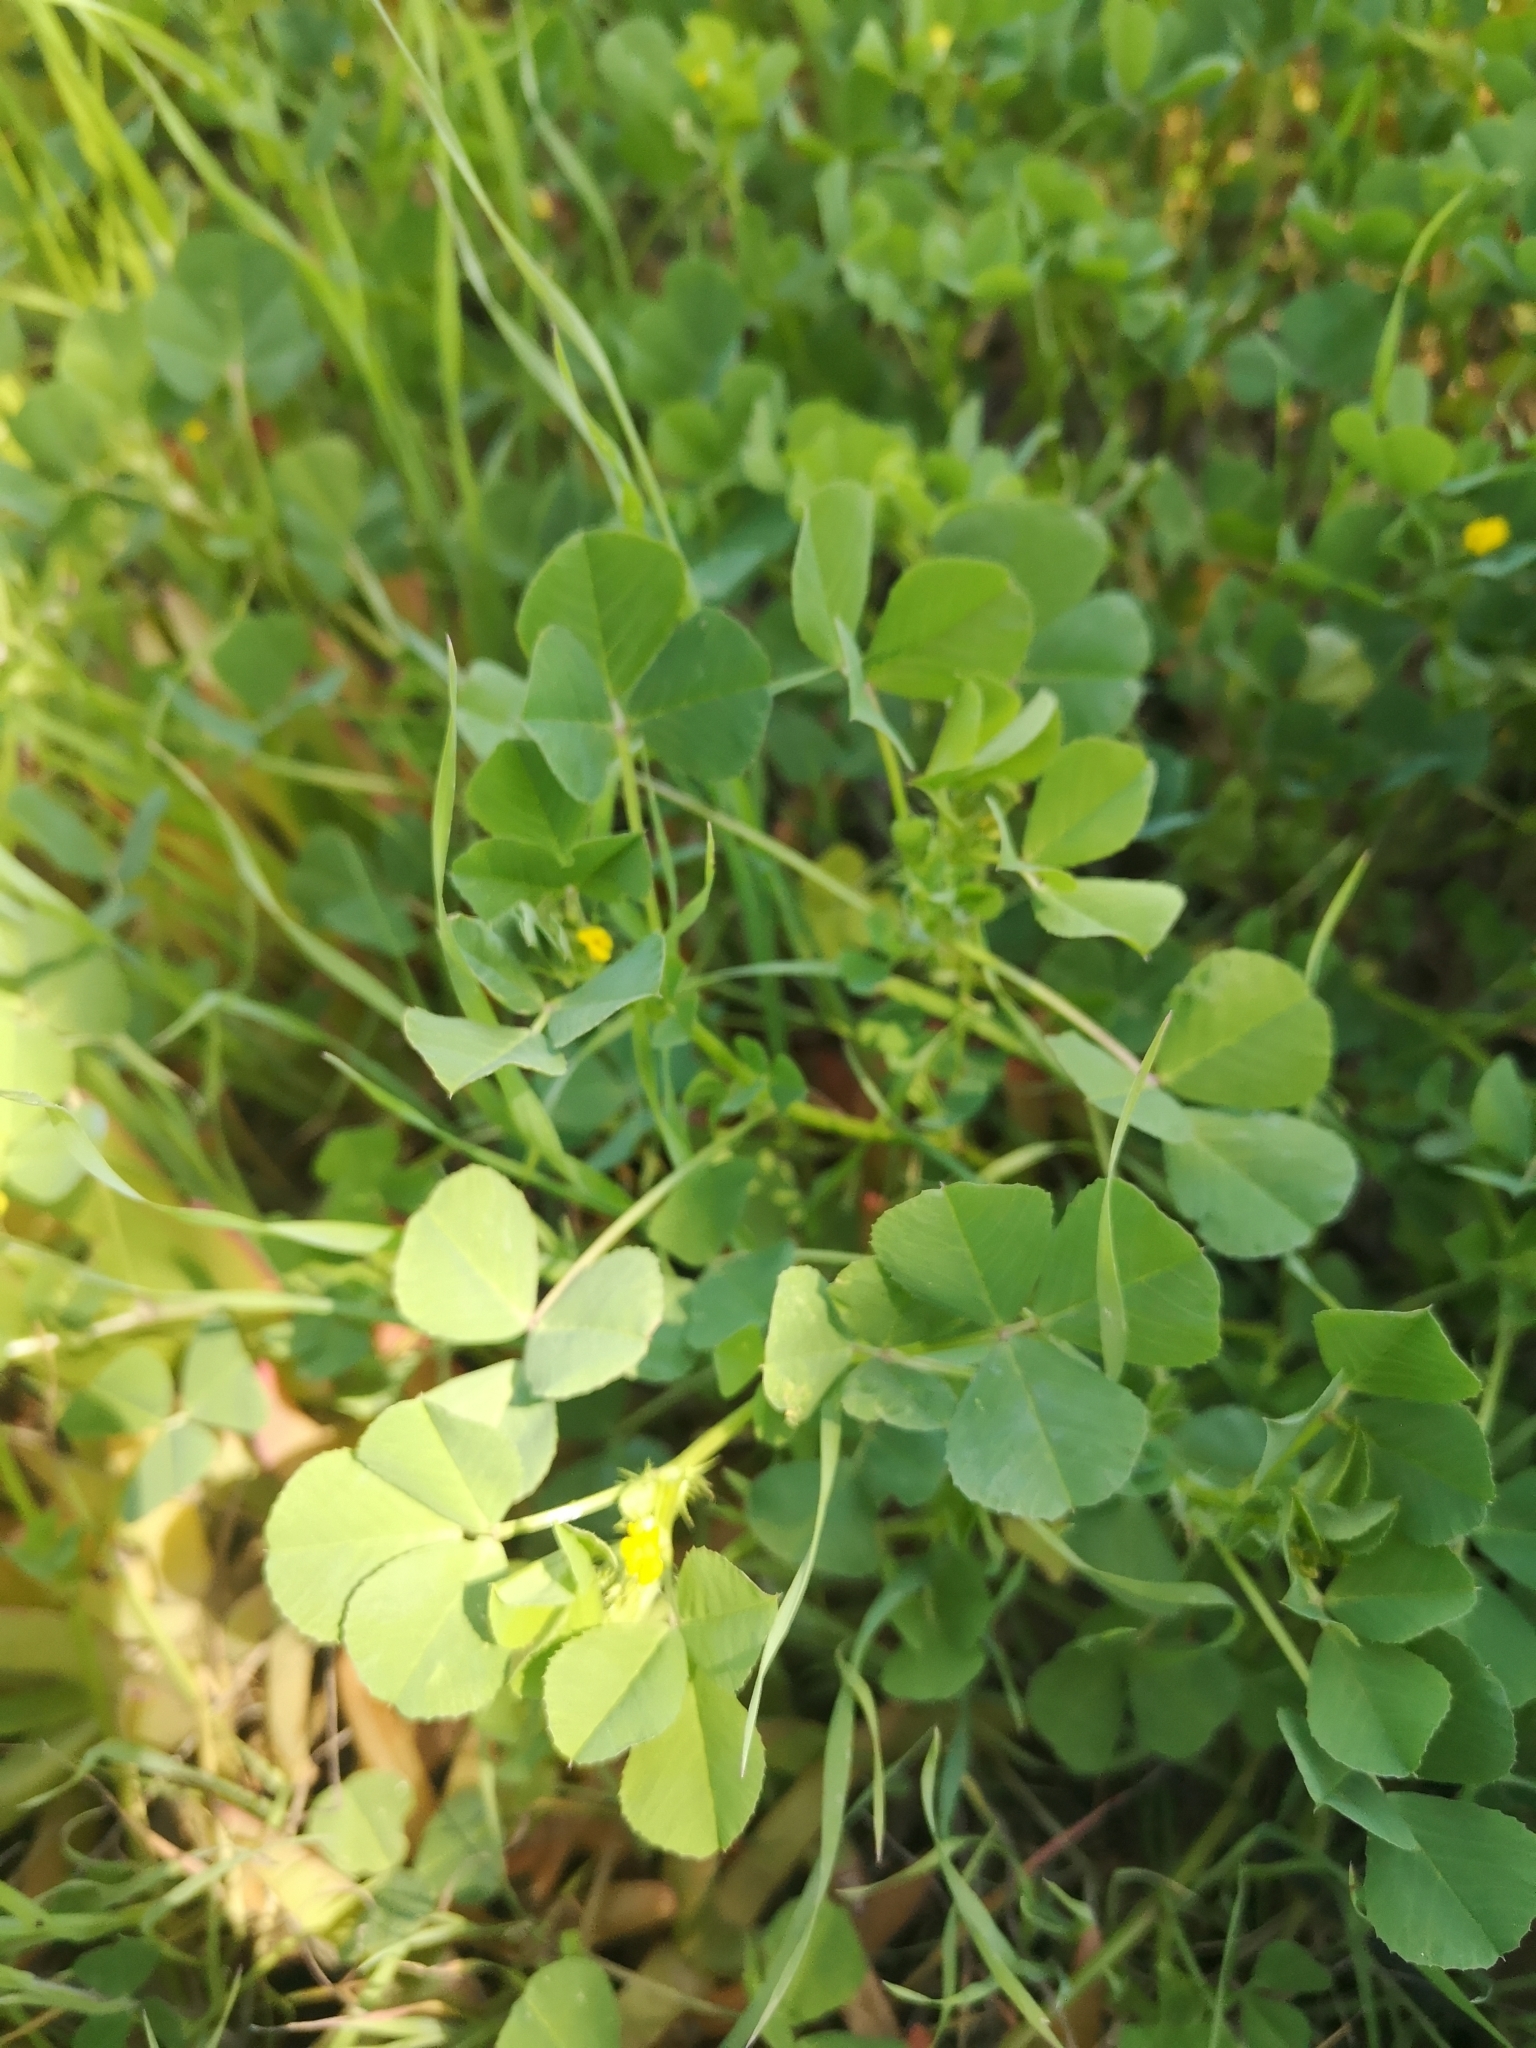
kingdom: Plantae
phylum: Tracheophyta
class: Magnoliopsida
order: Fabales
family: Fabaceae
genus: Medicago
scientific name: Medicago polymorpha
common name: Burclover
